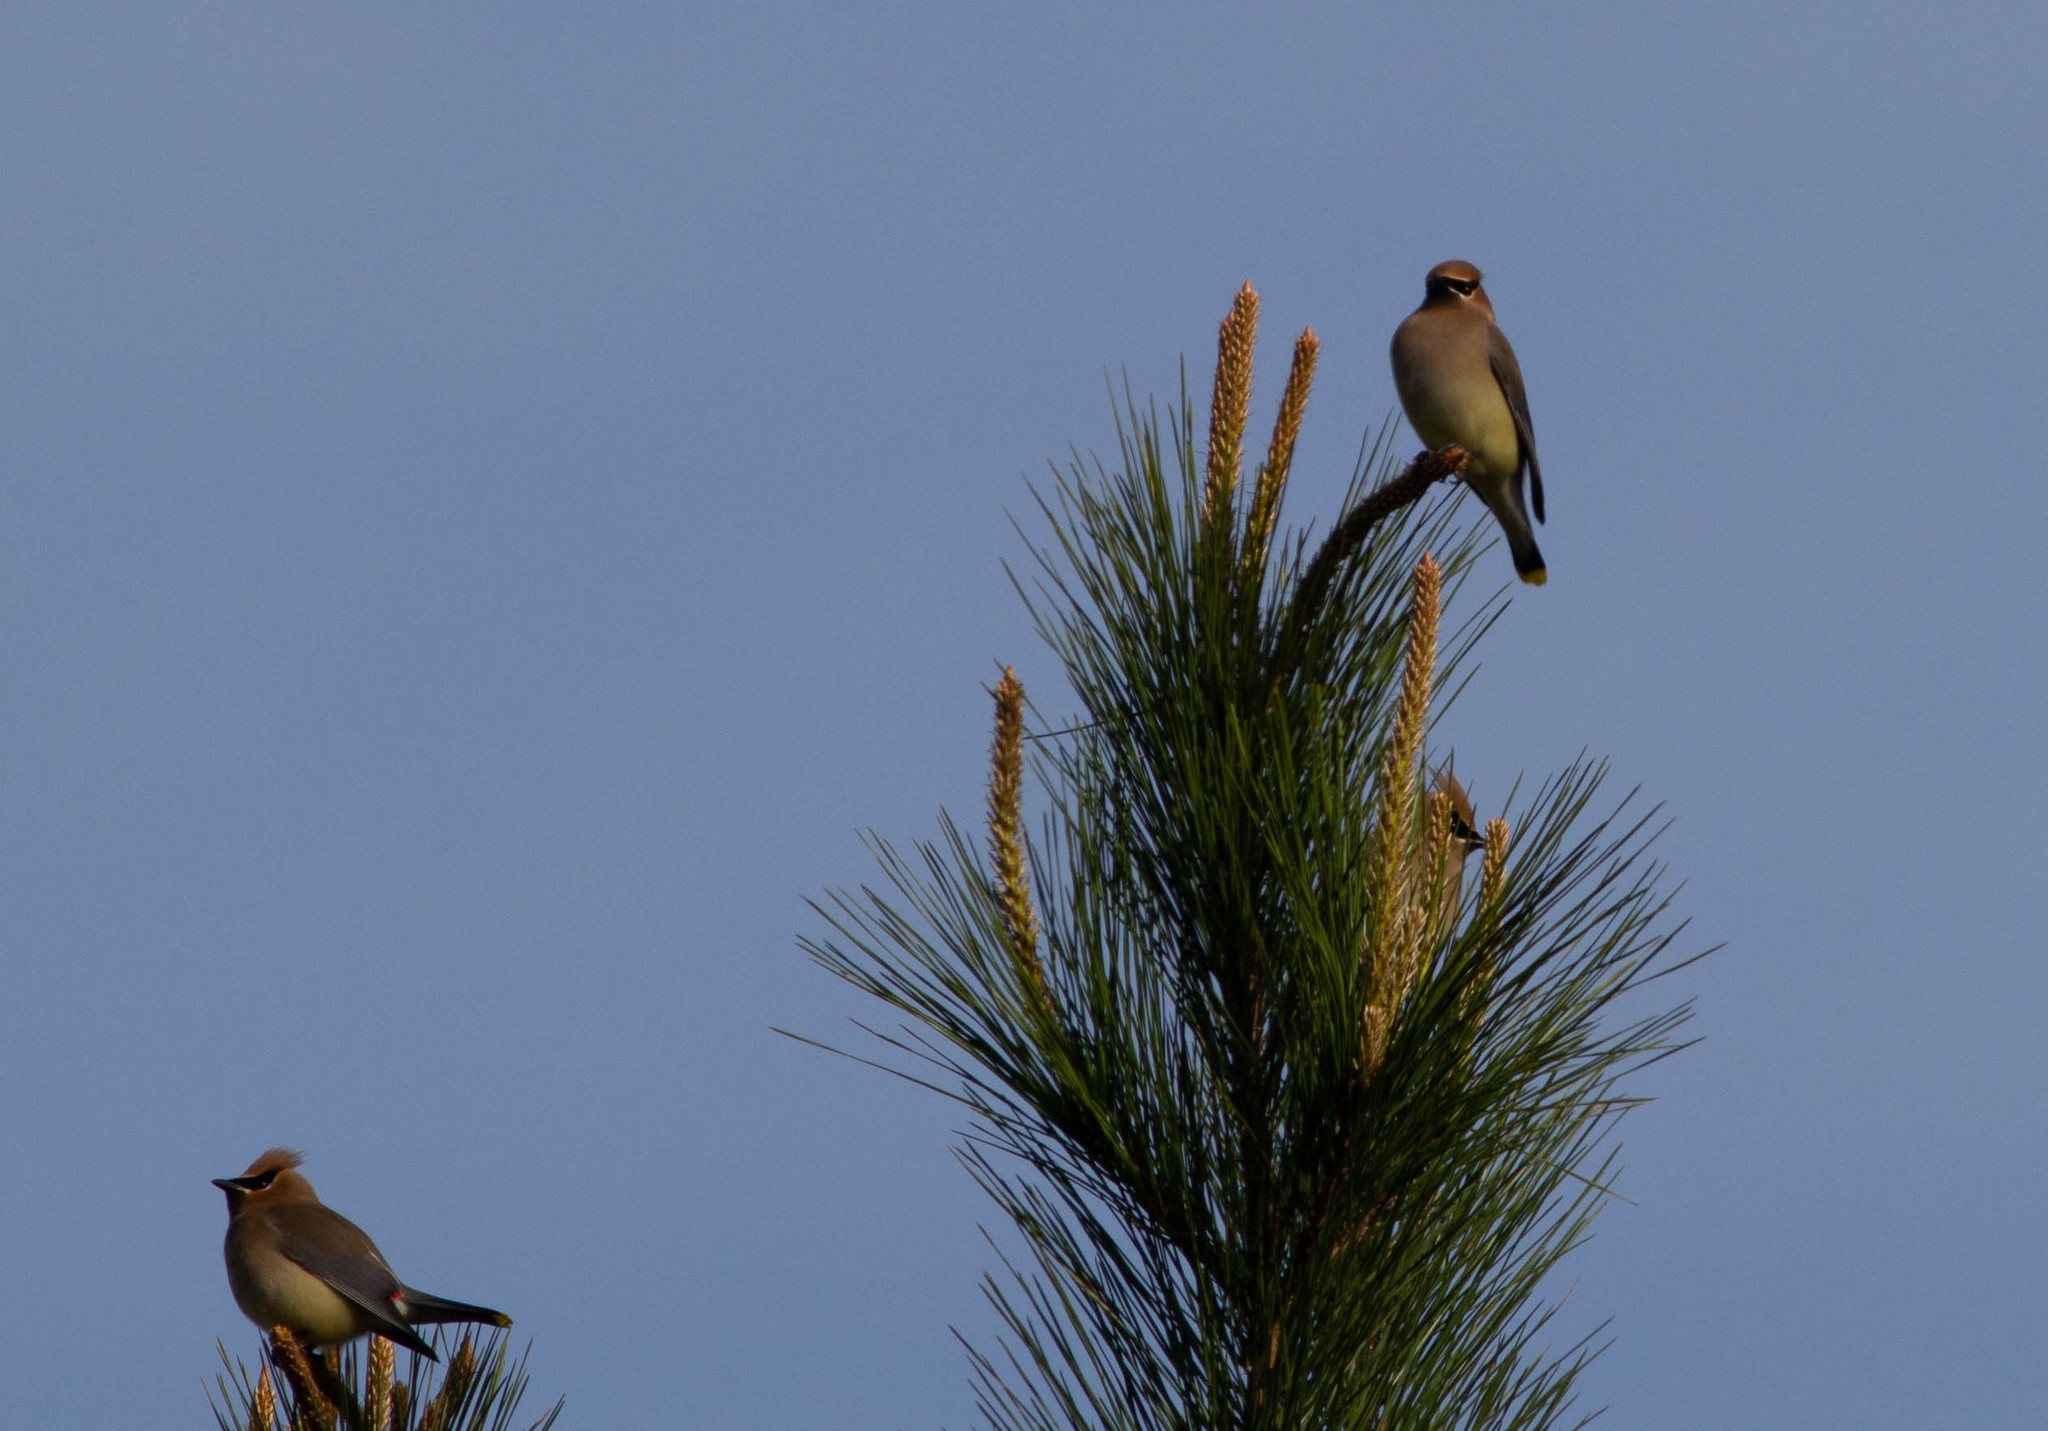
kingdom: Animalia
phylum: Chordata
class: Aves
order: Passeriformes
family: Bombycillidae
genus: Bombycilla
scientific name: Bombycilla cedrorum
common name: Cedar waxwing
